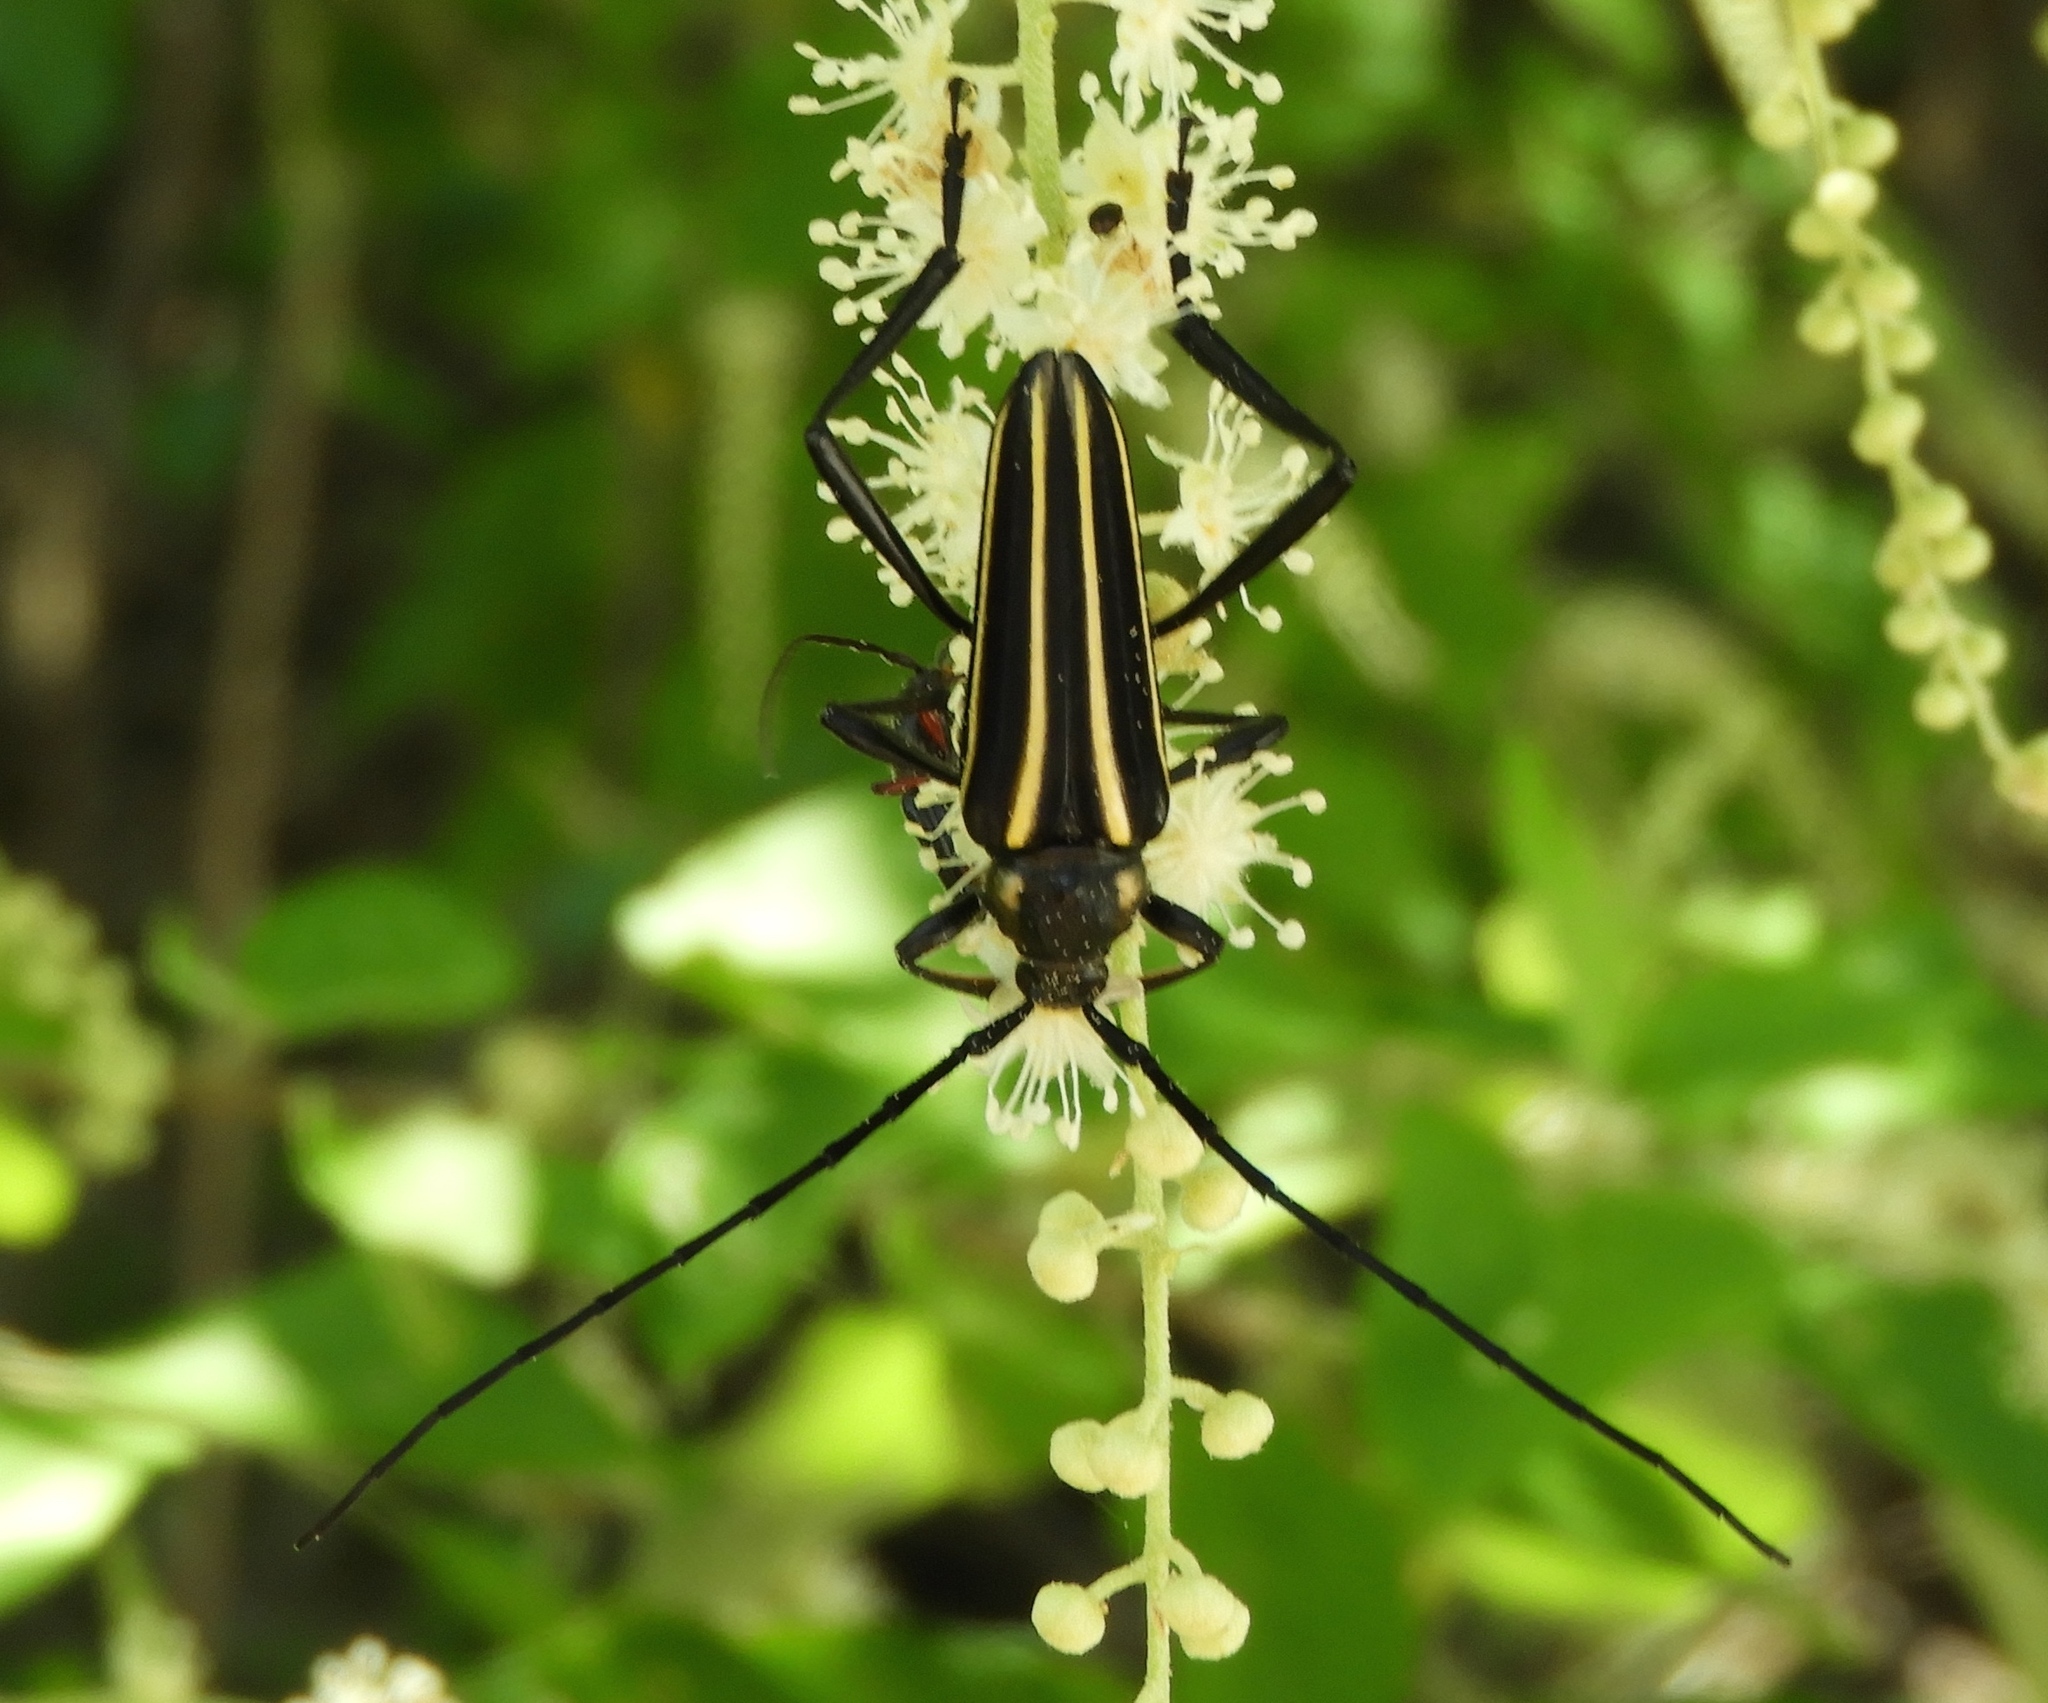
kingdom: Animalia
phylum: Arthropoda
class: Insecta
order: Coleoptera
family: Cerambycidae
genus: Neotaranomis
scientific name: Neotaranomis sinaloae
